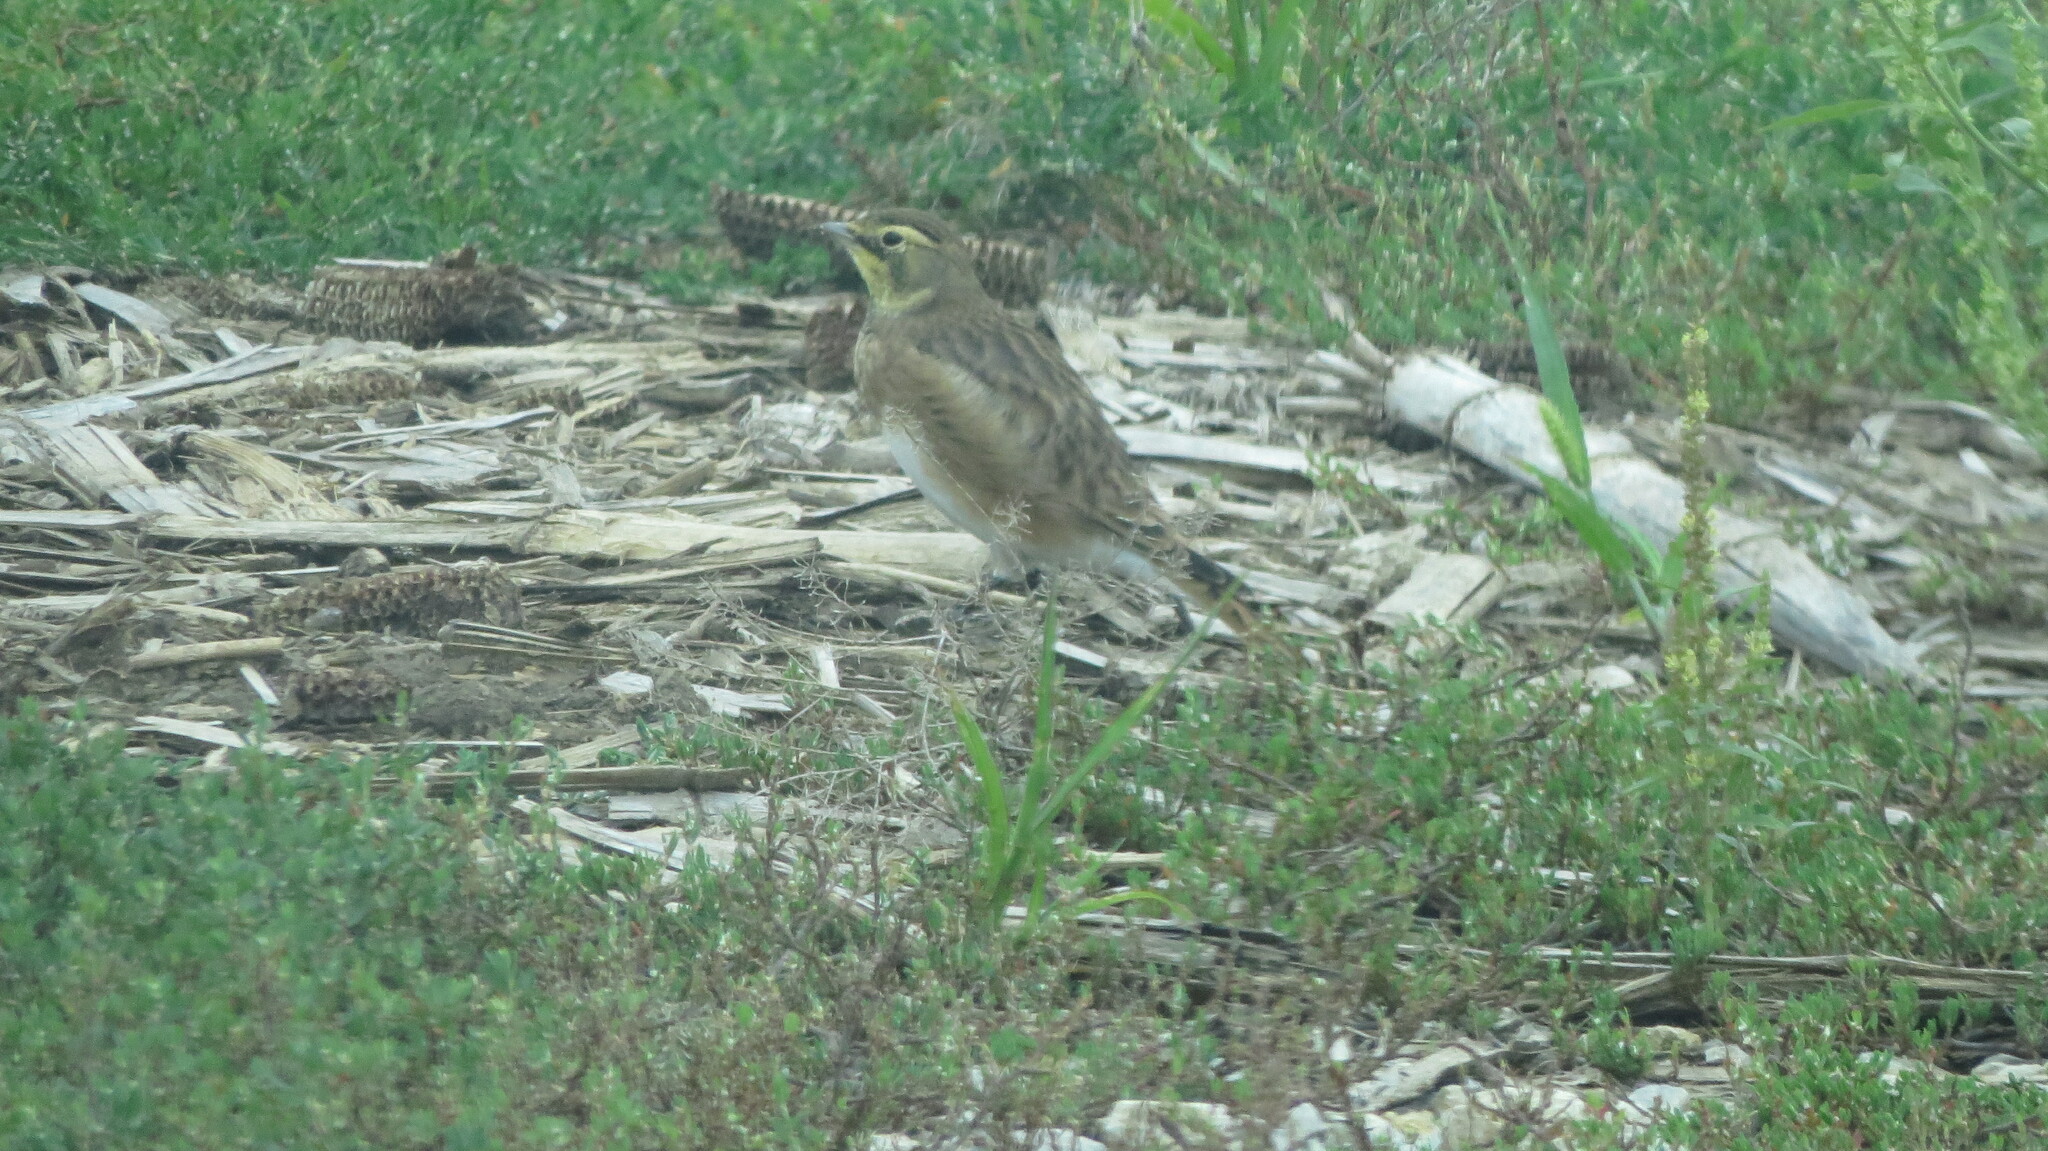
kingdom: Animalia
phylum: Chordata
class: Aves
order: Passeriformes
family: Alaudidae
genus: Eremophila
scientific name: Eremophila alpestris
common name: Horned lark
